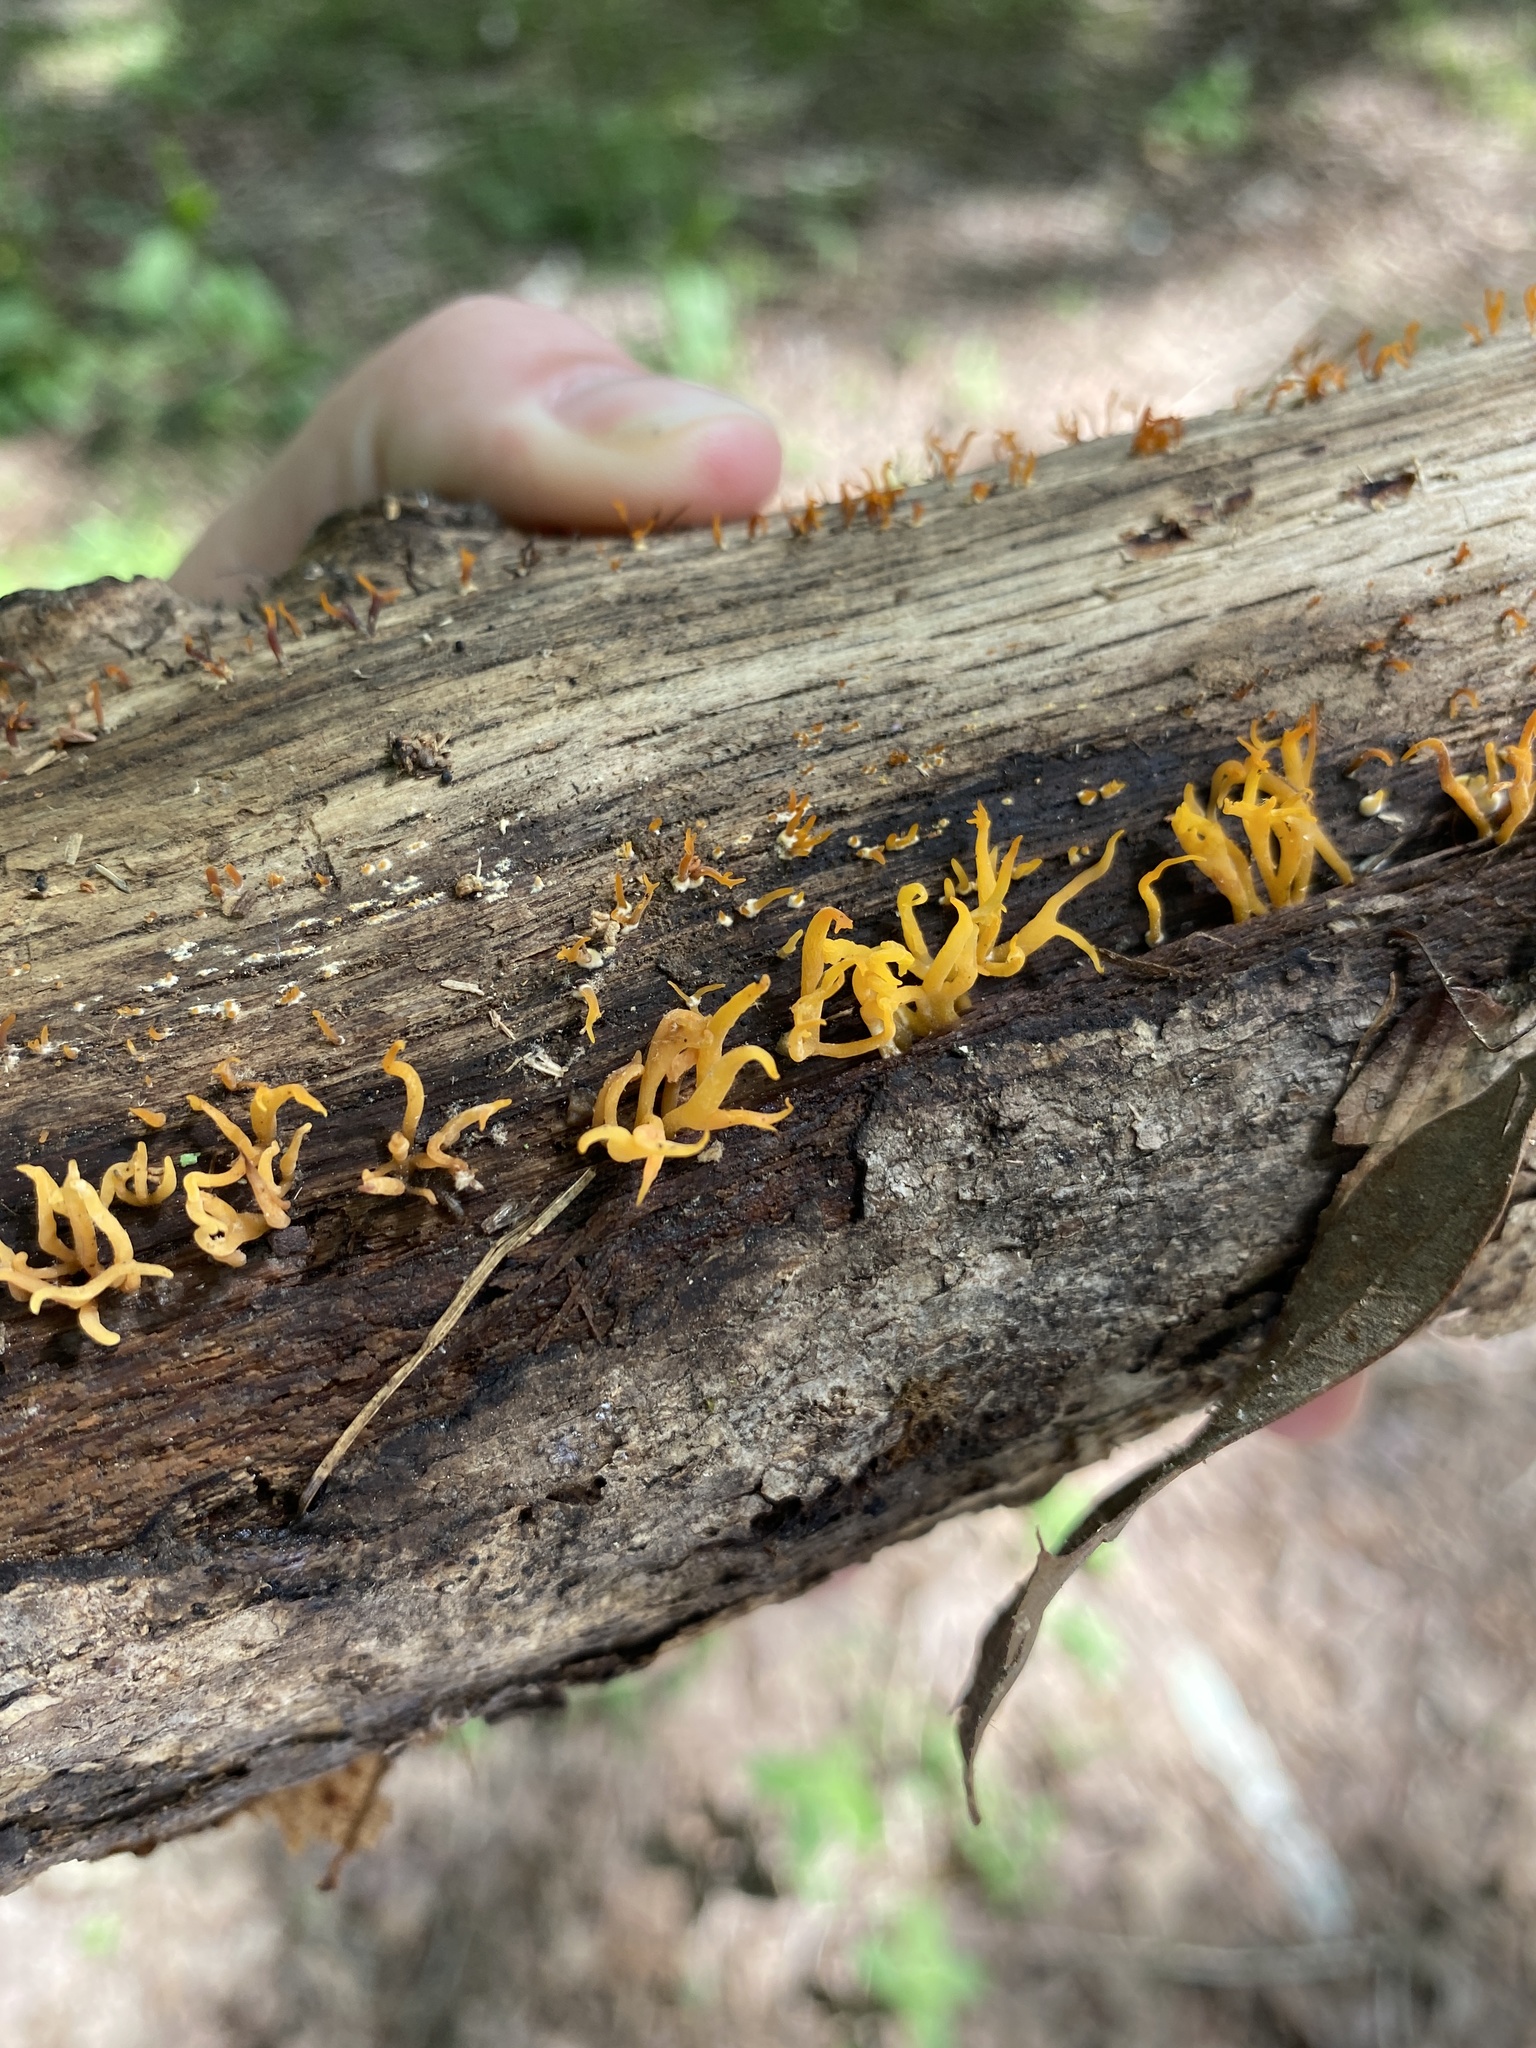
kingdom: Fungi
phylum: Basidiomycota
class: Dacrymycetes
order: Dacrymycetales
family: Dacrymycetaceae
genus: Calocera
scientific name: Calocera cornea
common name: Small stagshorn
